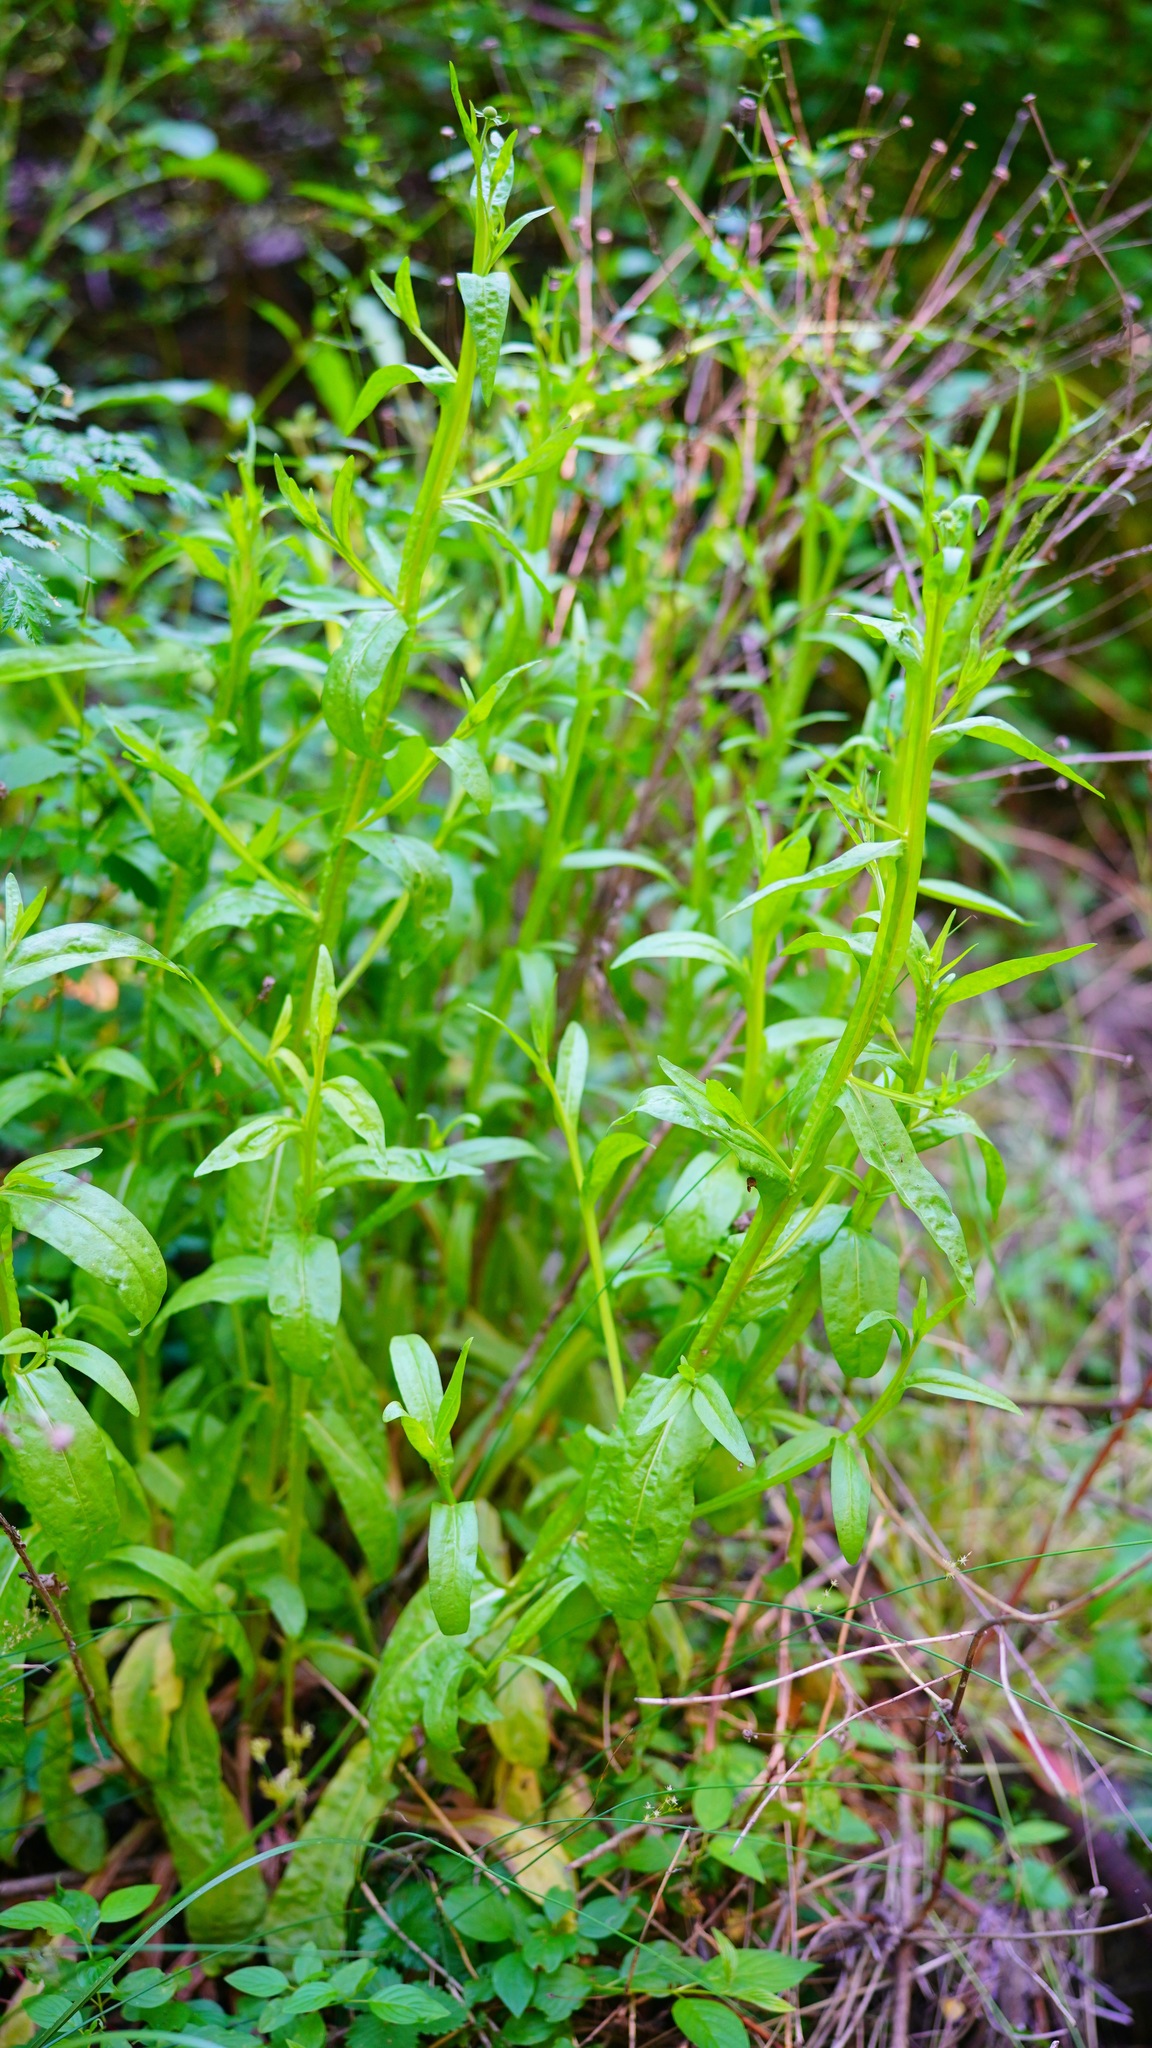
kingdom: Plantae
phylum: Tracheophyta
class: Magnoliopsida
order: Asterales
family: Asteraceae
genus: Helenium
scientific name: Helenium puberulum
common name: Sneezewort
